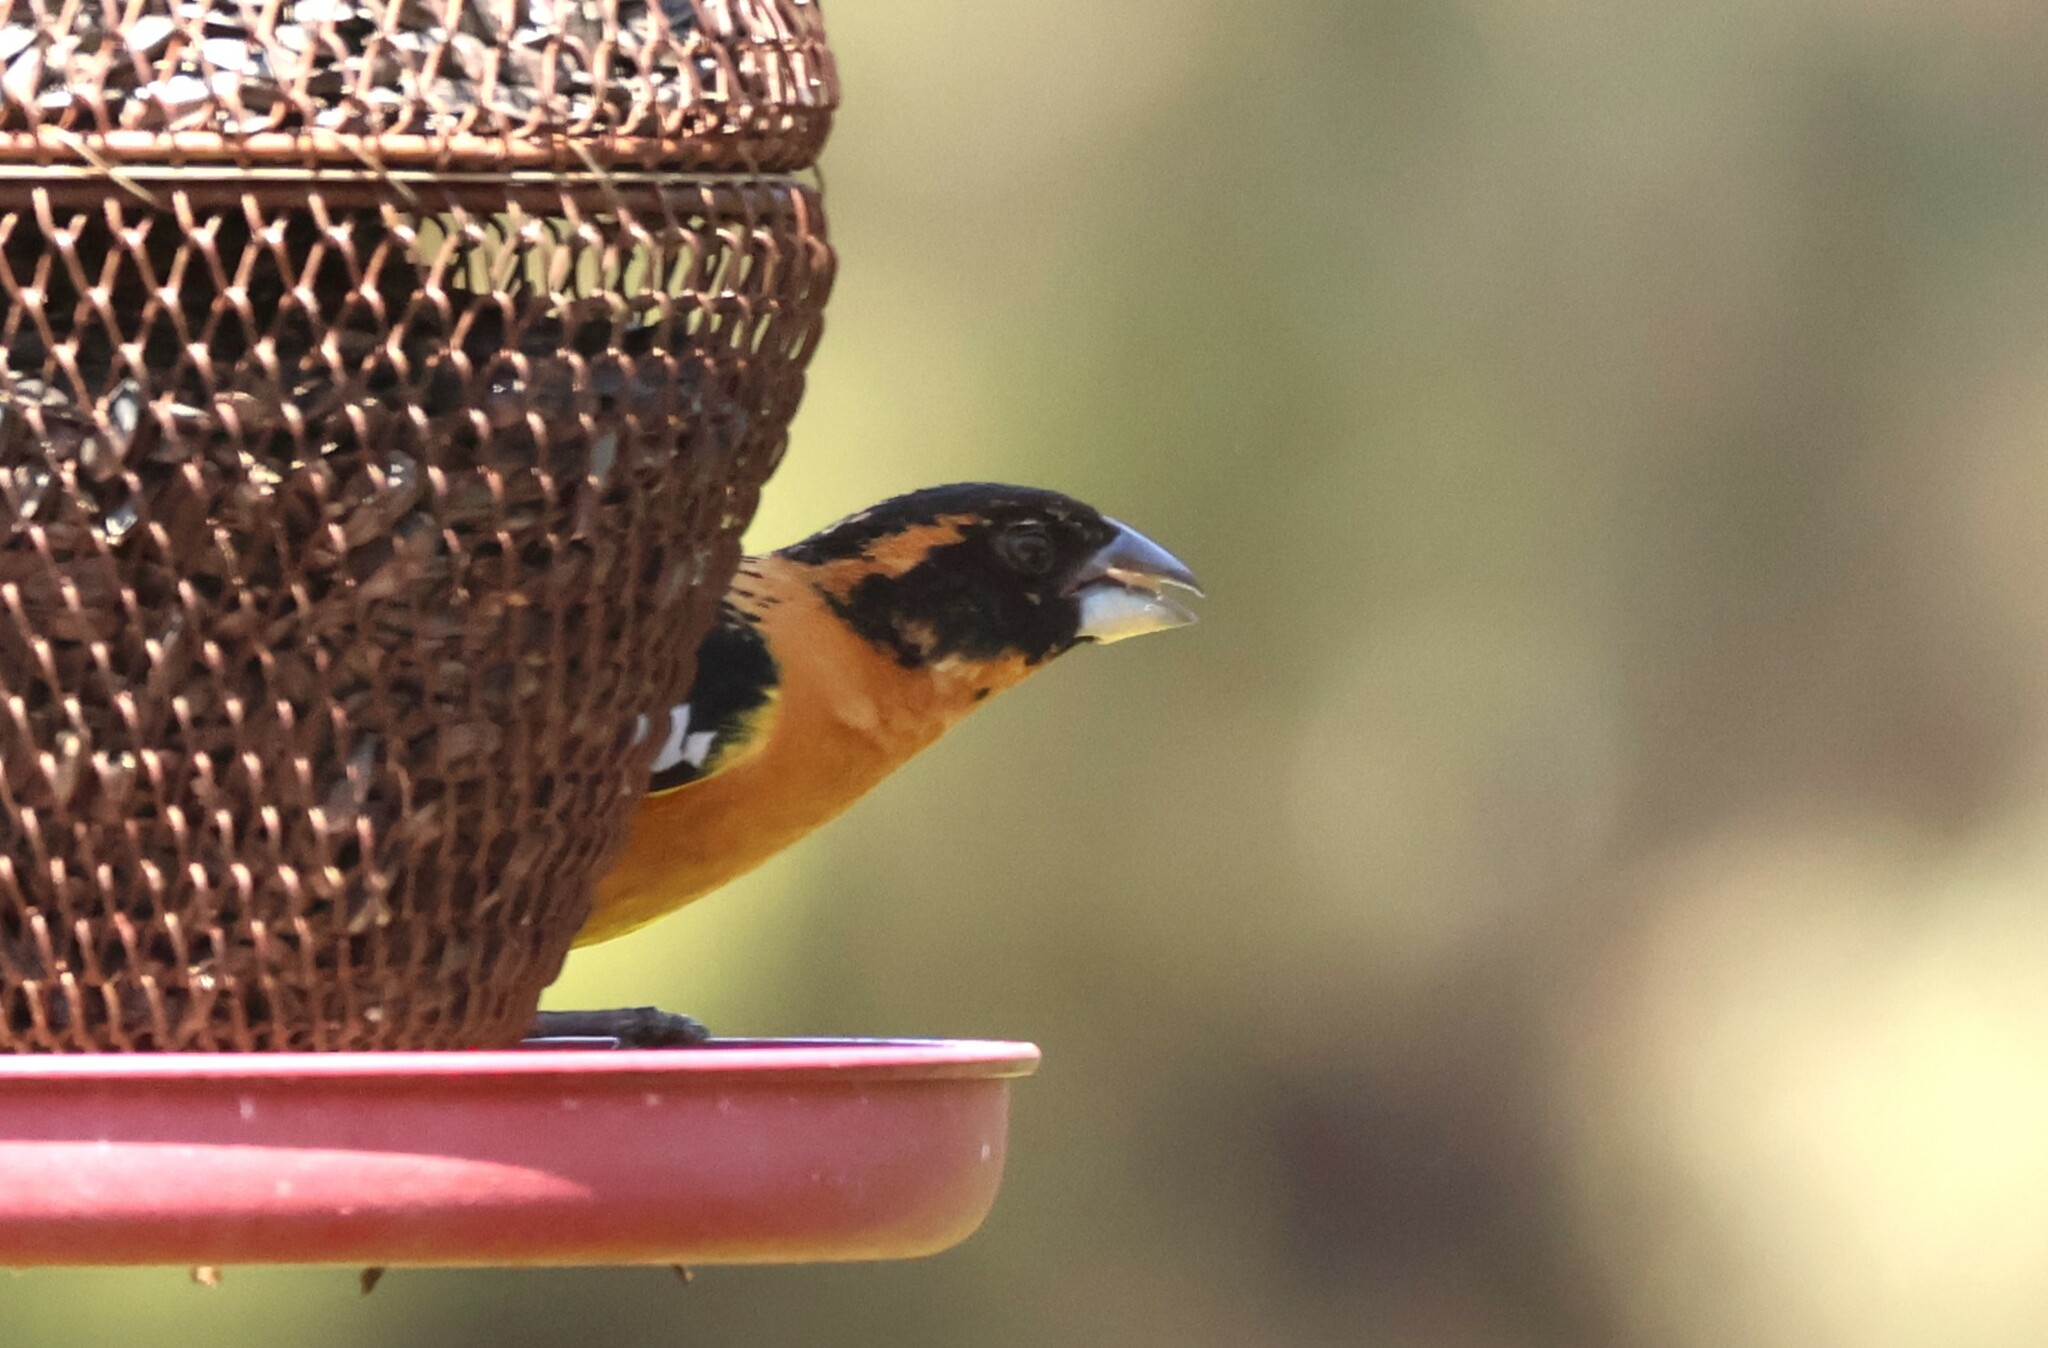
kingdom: Animalia
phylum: Chordata
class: Aves
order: Passeriformes
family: Cardinalidae
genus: Pheucticus
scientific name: Pheucticus melanocephalus
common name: Black-headed grosbeak
